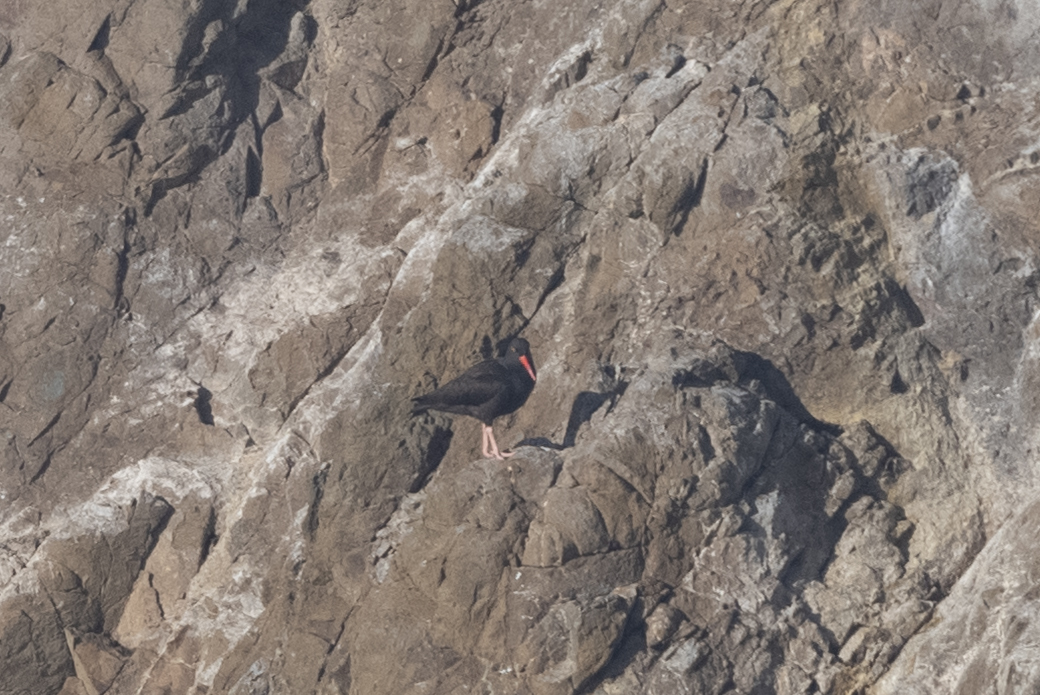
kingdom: Animalia
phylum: Chordata
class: Aves
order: Charadriiformes
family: Haematopodidae
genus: Haematopus
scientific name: Haematopus bachmani
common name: Black oystercatcher
